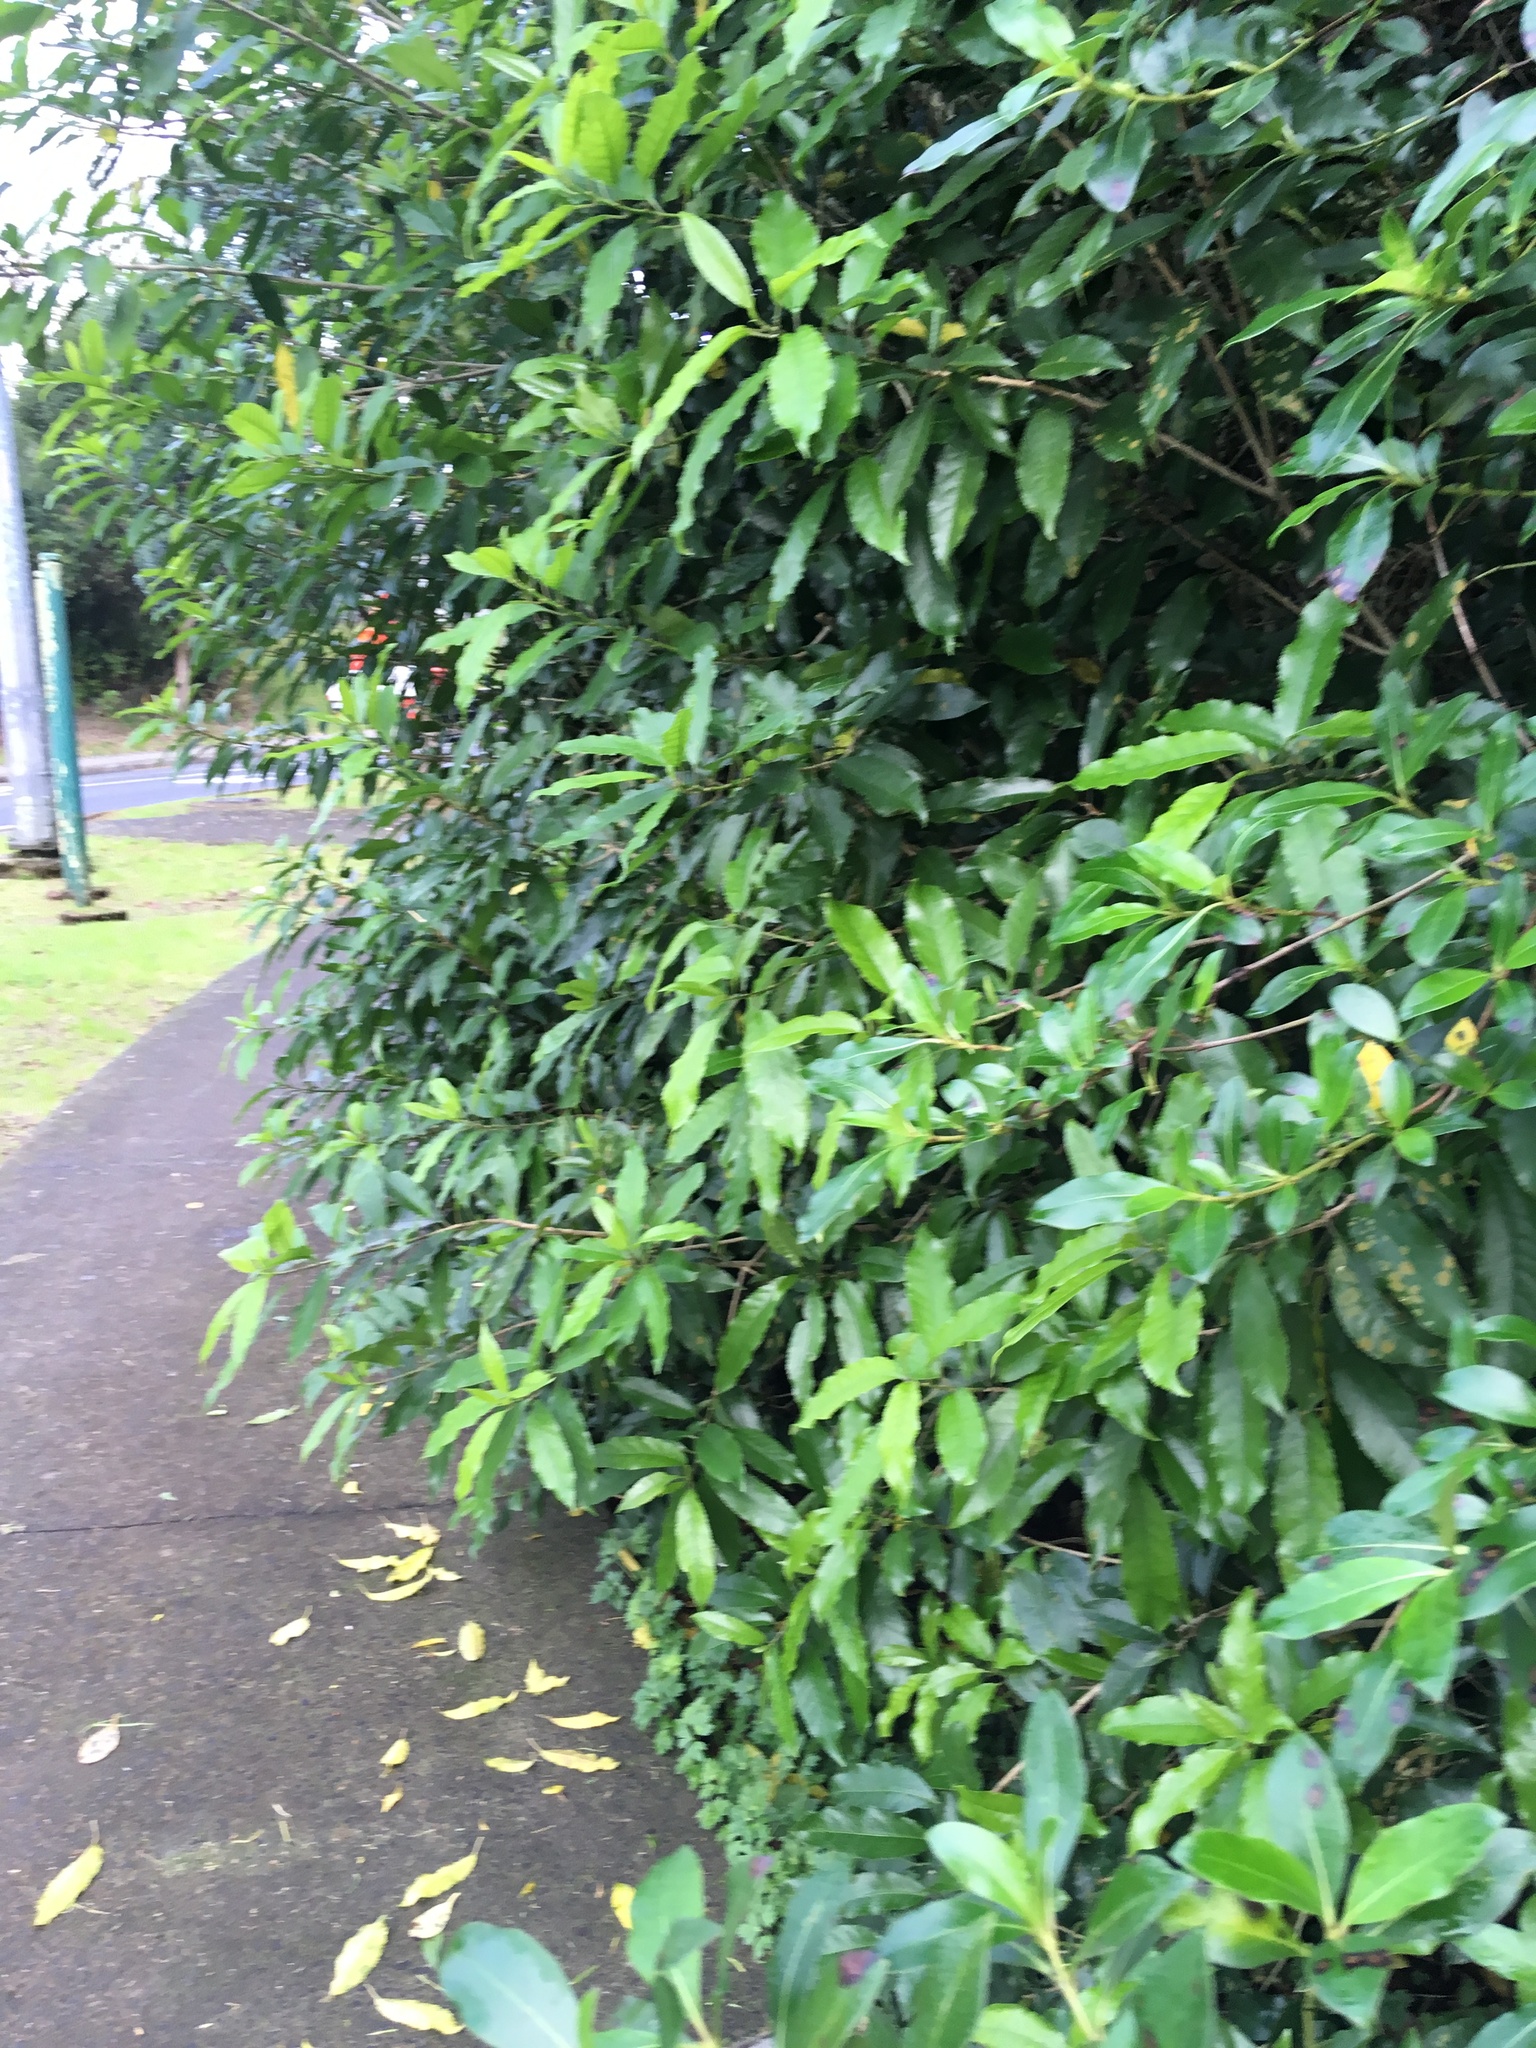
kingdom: Plantae
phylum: Tracheophyta
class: Magnoliopsida
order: Malpighiales
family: Violaceae
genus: Melicytus
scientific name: Melicytus ramiflorus
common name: Mahoe
